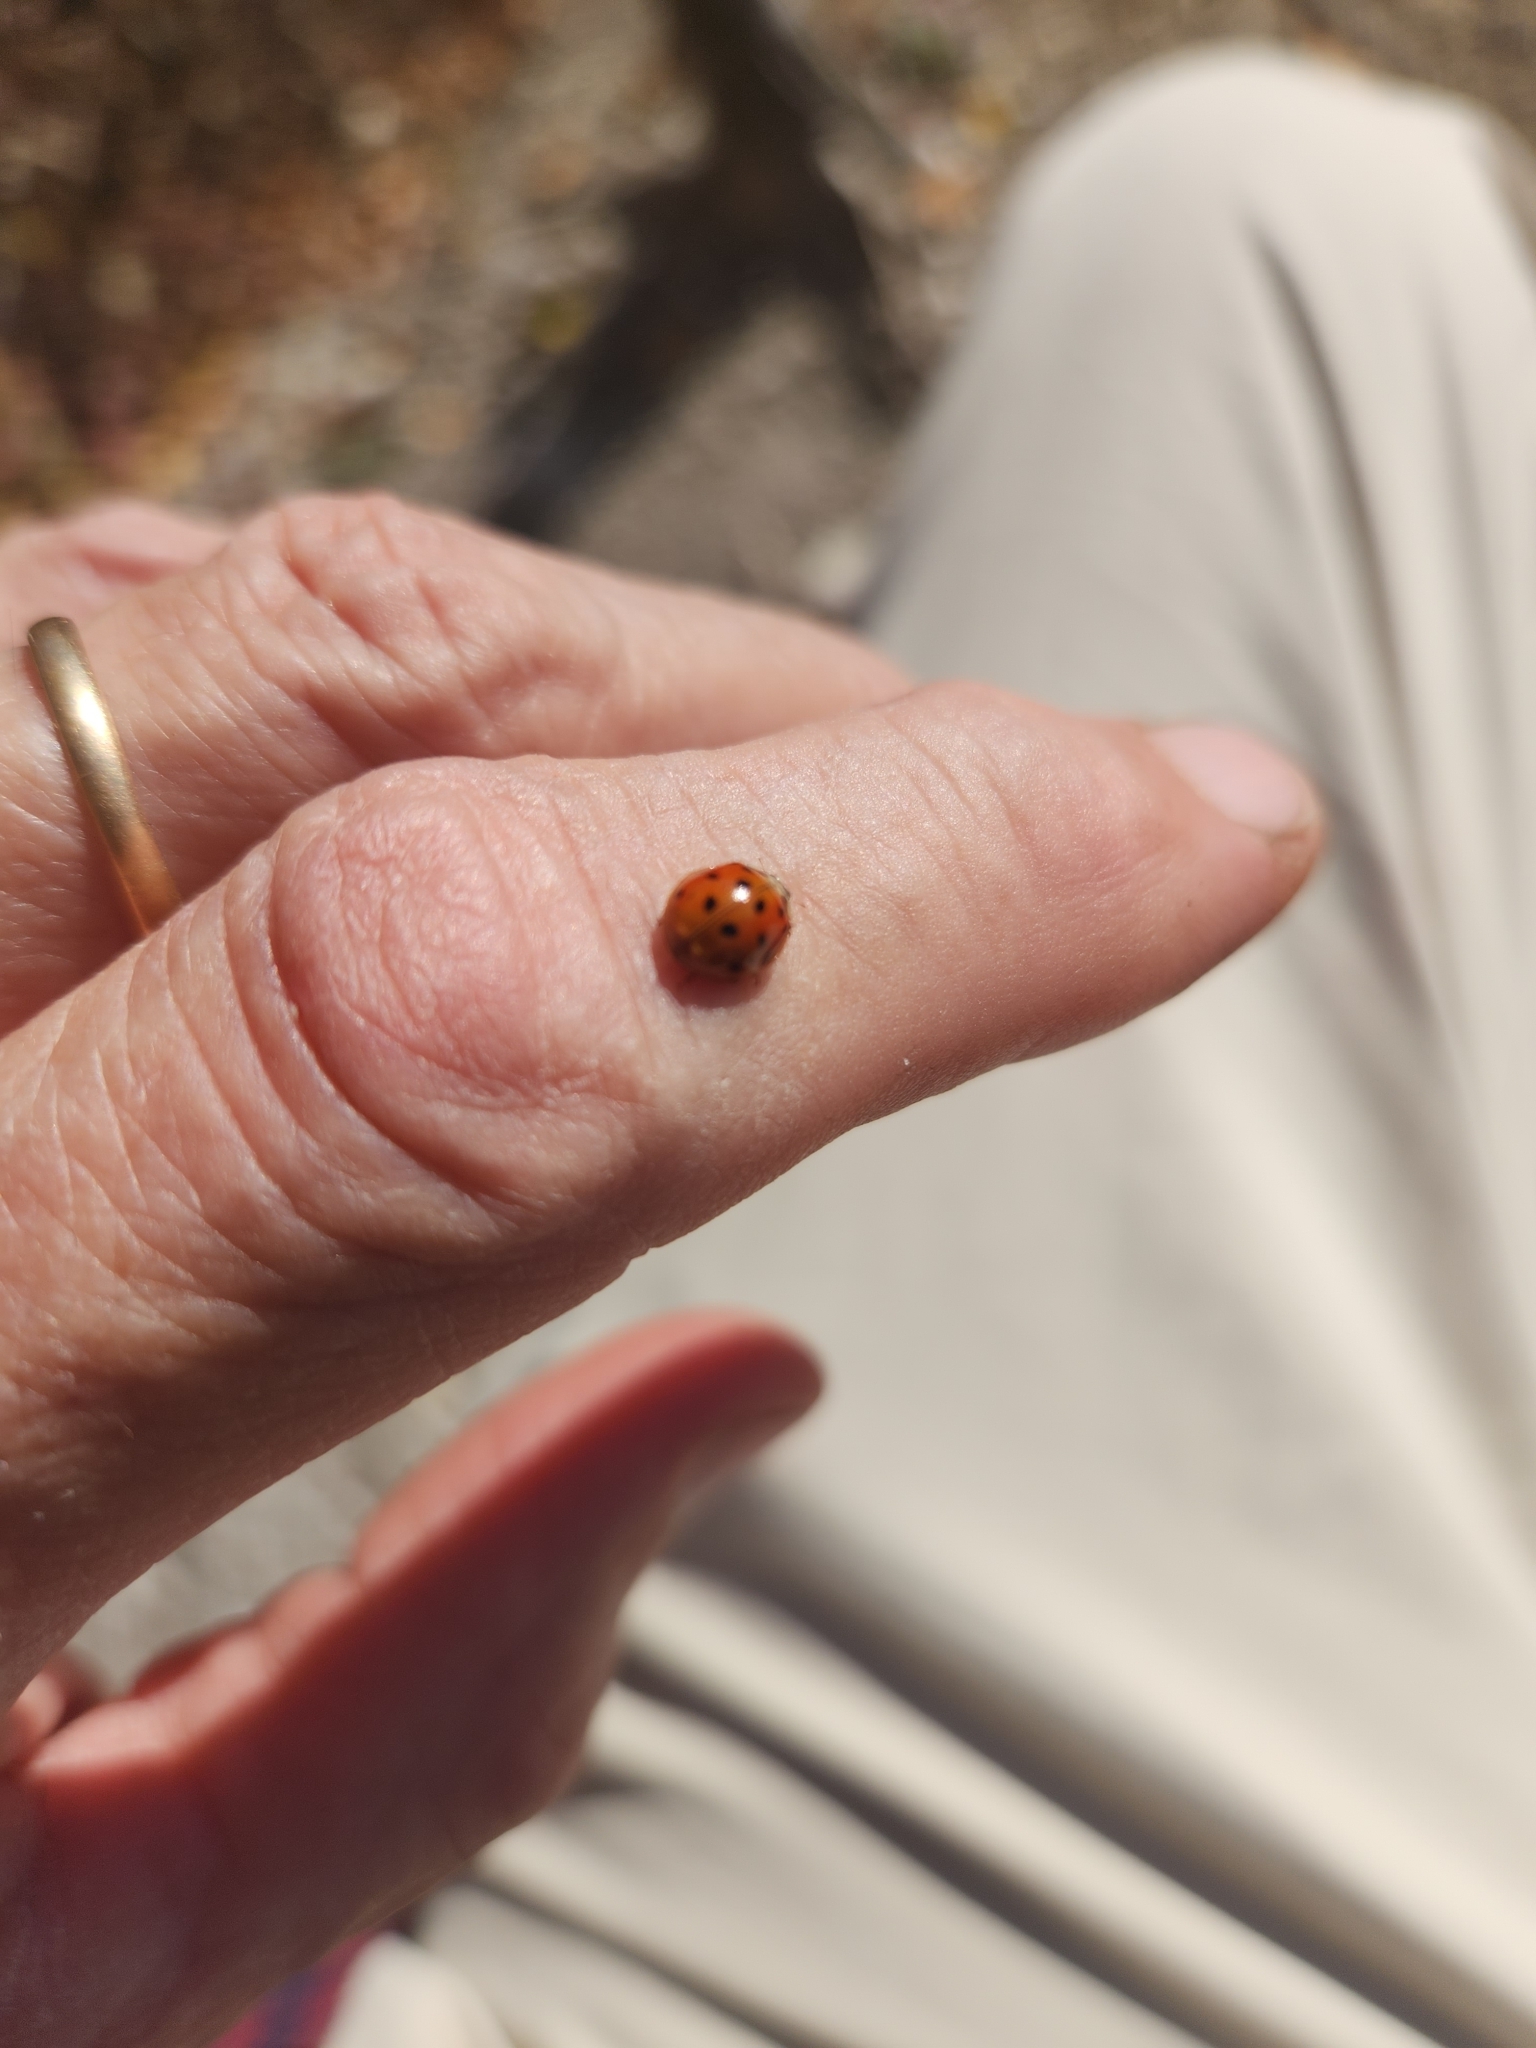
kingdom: Animalia
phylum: Arthropoda
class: Insecta
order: Coleoptera
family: Coccinellidae
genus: Harmonia
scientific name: Harmonia axyridis
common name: Harlequin ladybird
